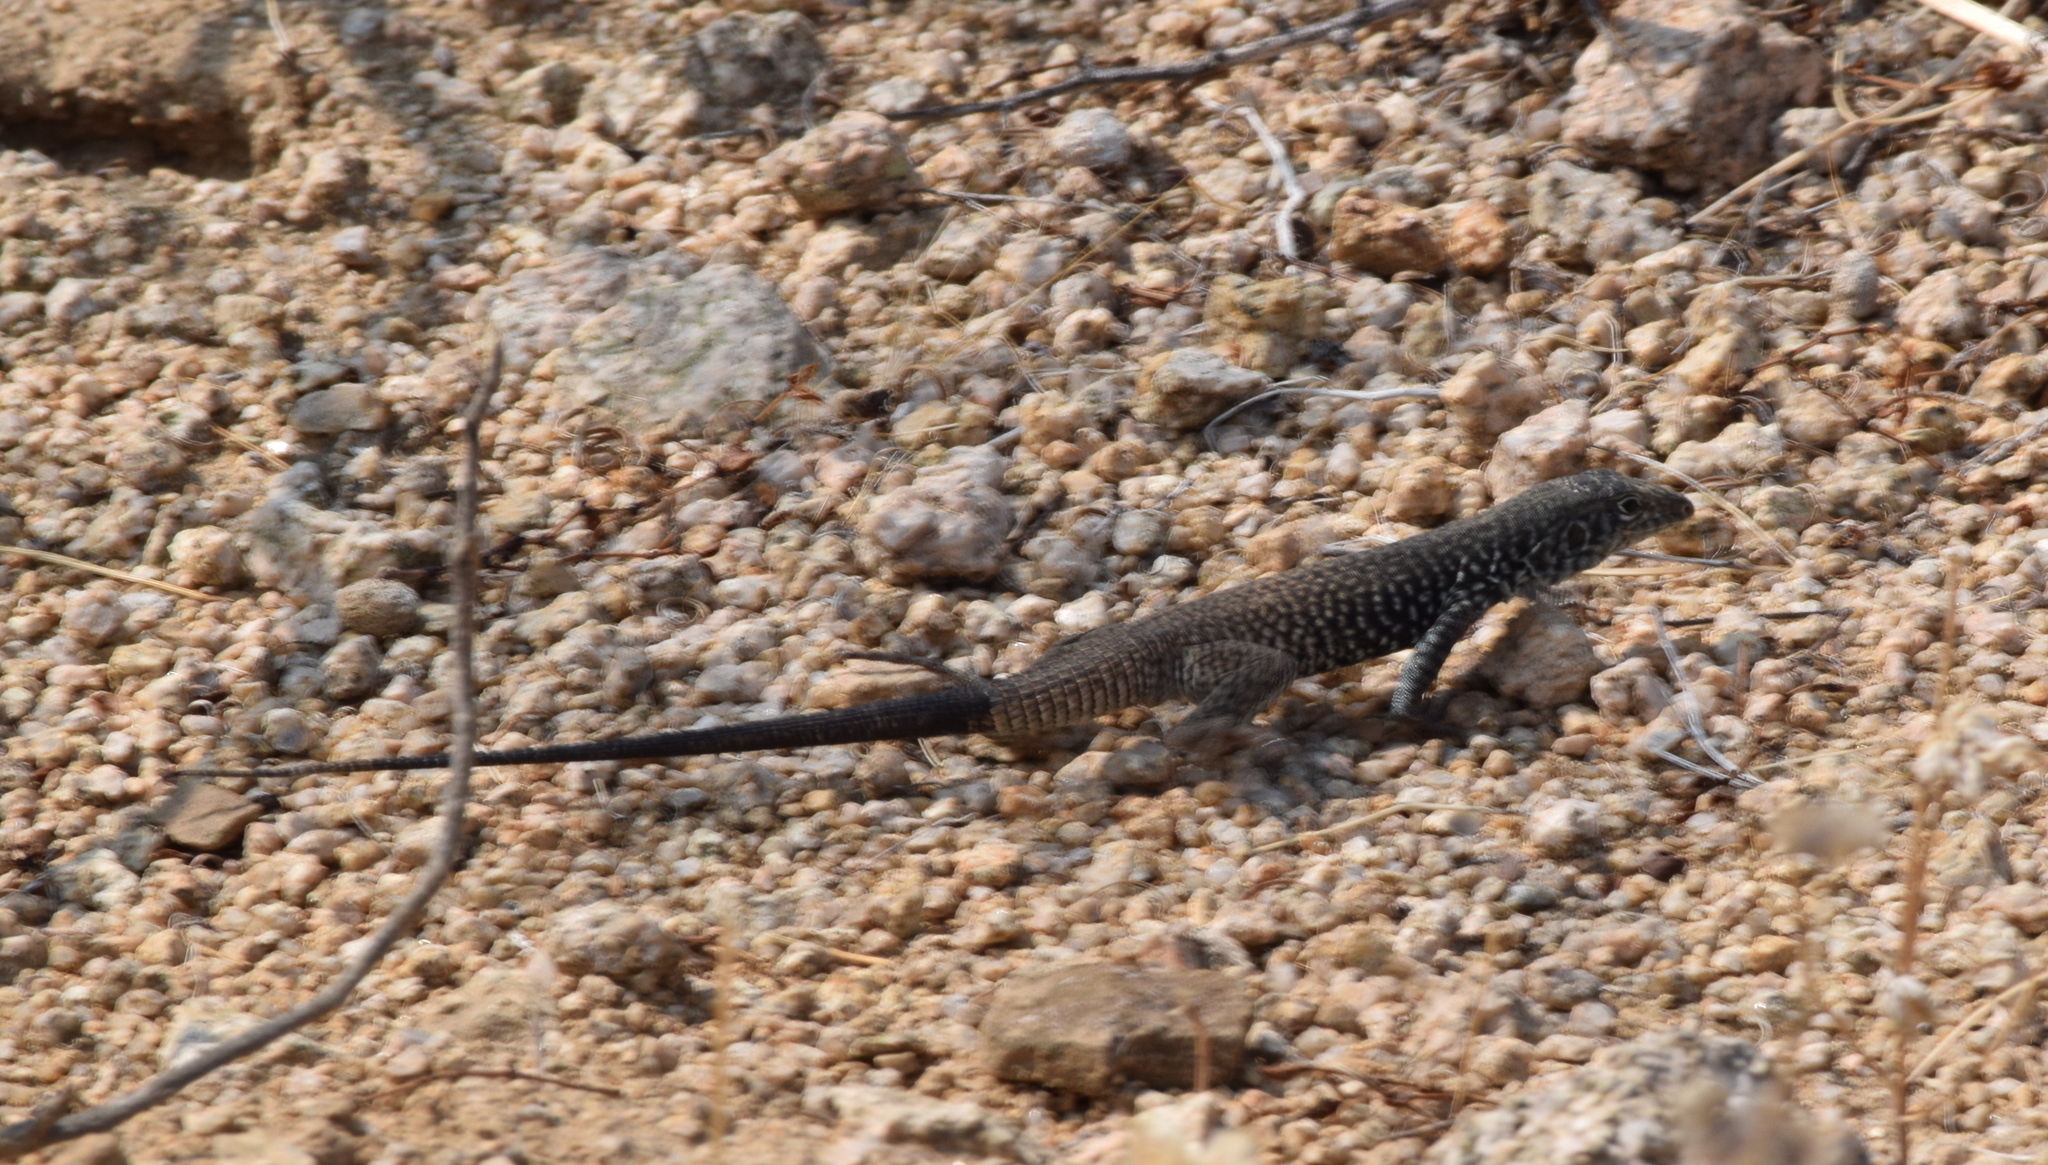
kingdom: Animalia
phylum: Chordata
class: Squamata
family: Teiidae
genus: Aspidoscelis
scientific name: Aspidoscelis tigris
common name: Tiger whiptail
